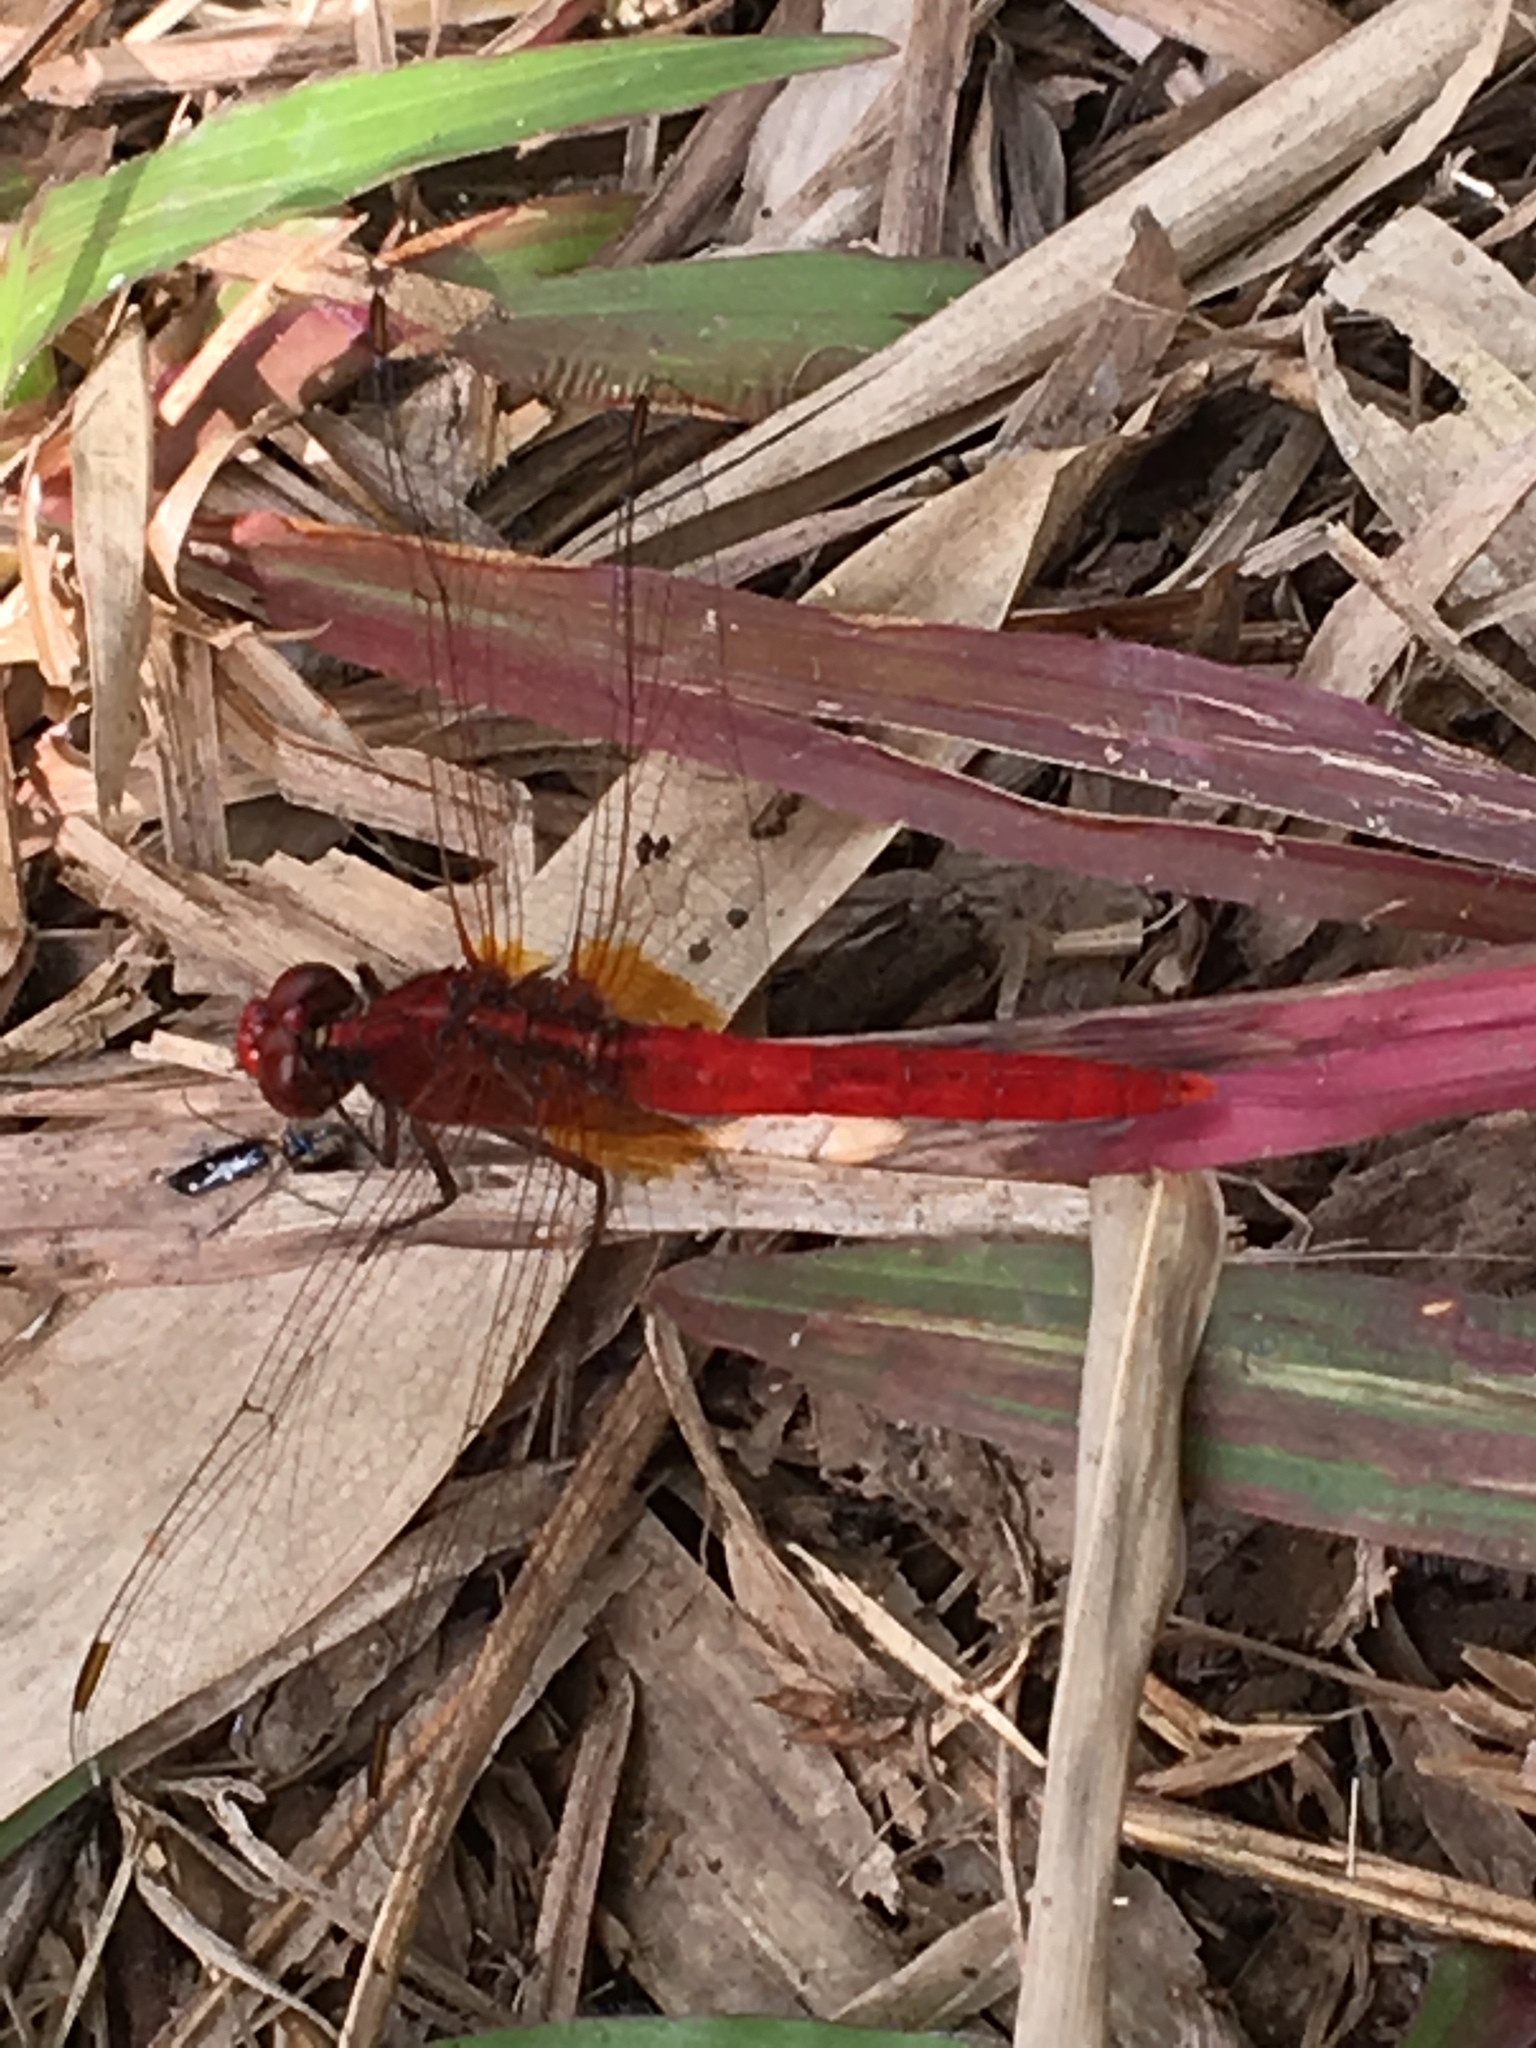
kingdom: Animalia
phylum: Arthropoda
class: Insecta
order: Odonata
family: Libellulidae
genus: Rhodothemis
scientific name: Rhodothemis rufa
